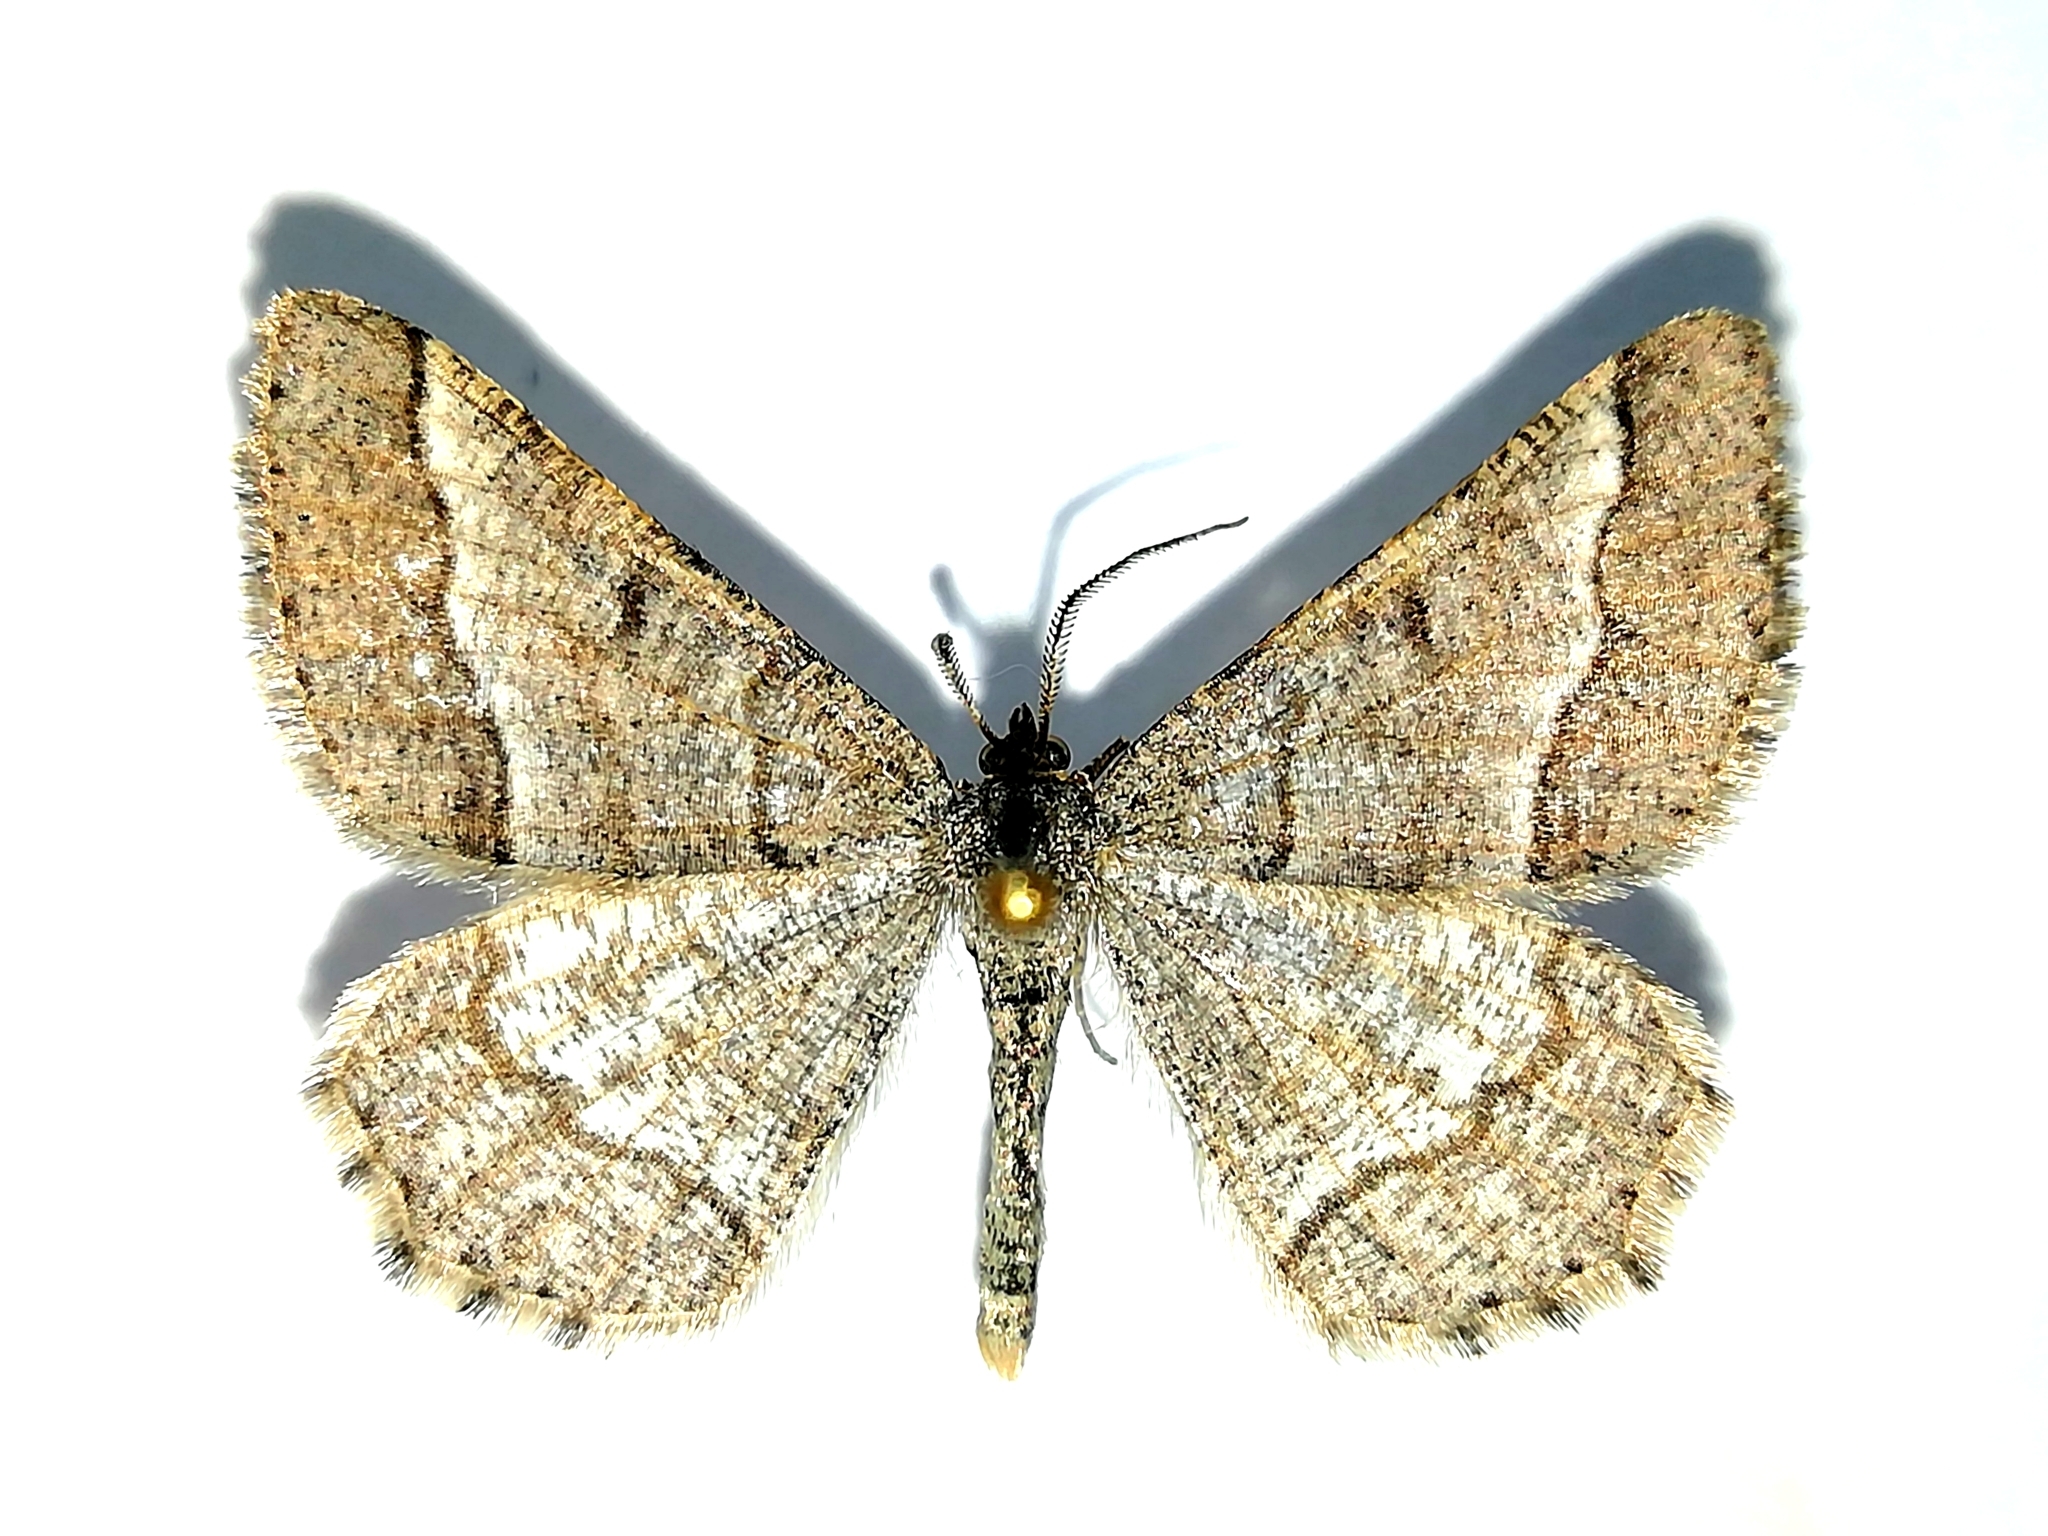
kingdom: Animalia
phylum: Arthropoda
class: Insecta
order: Lepidoptera
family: Geometridae
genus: Tephrina
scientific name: Tephrina murinaria
